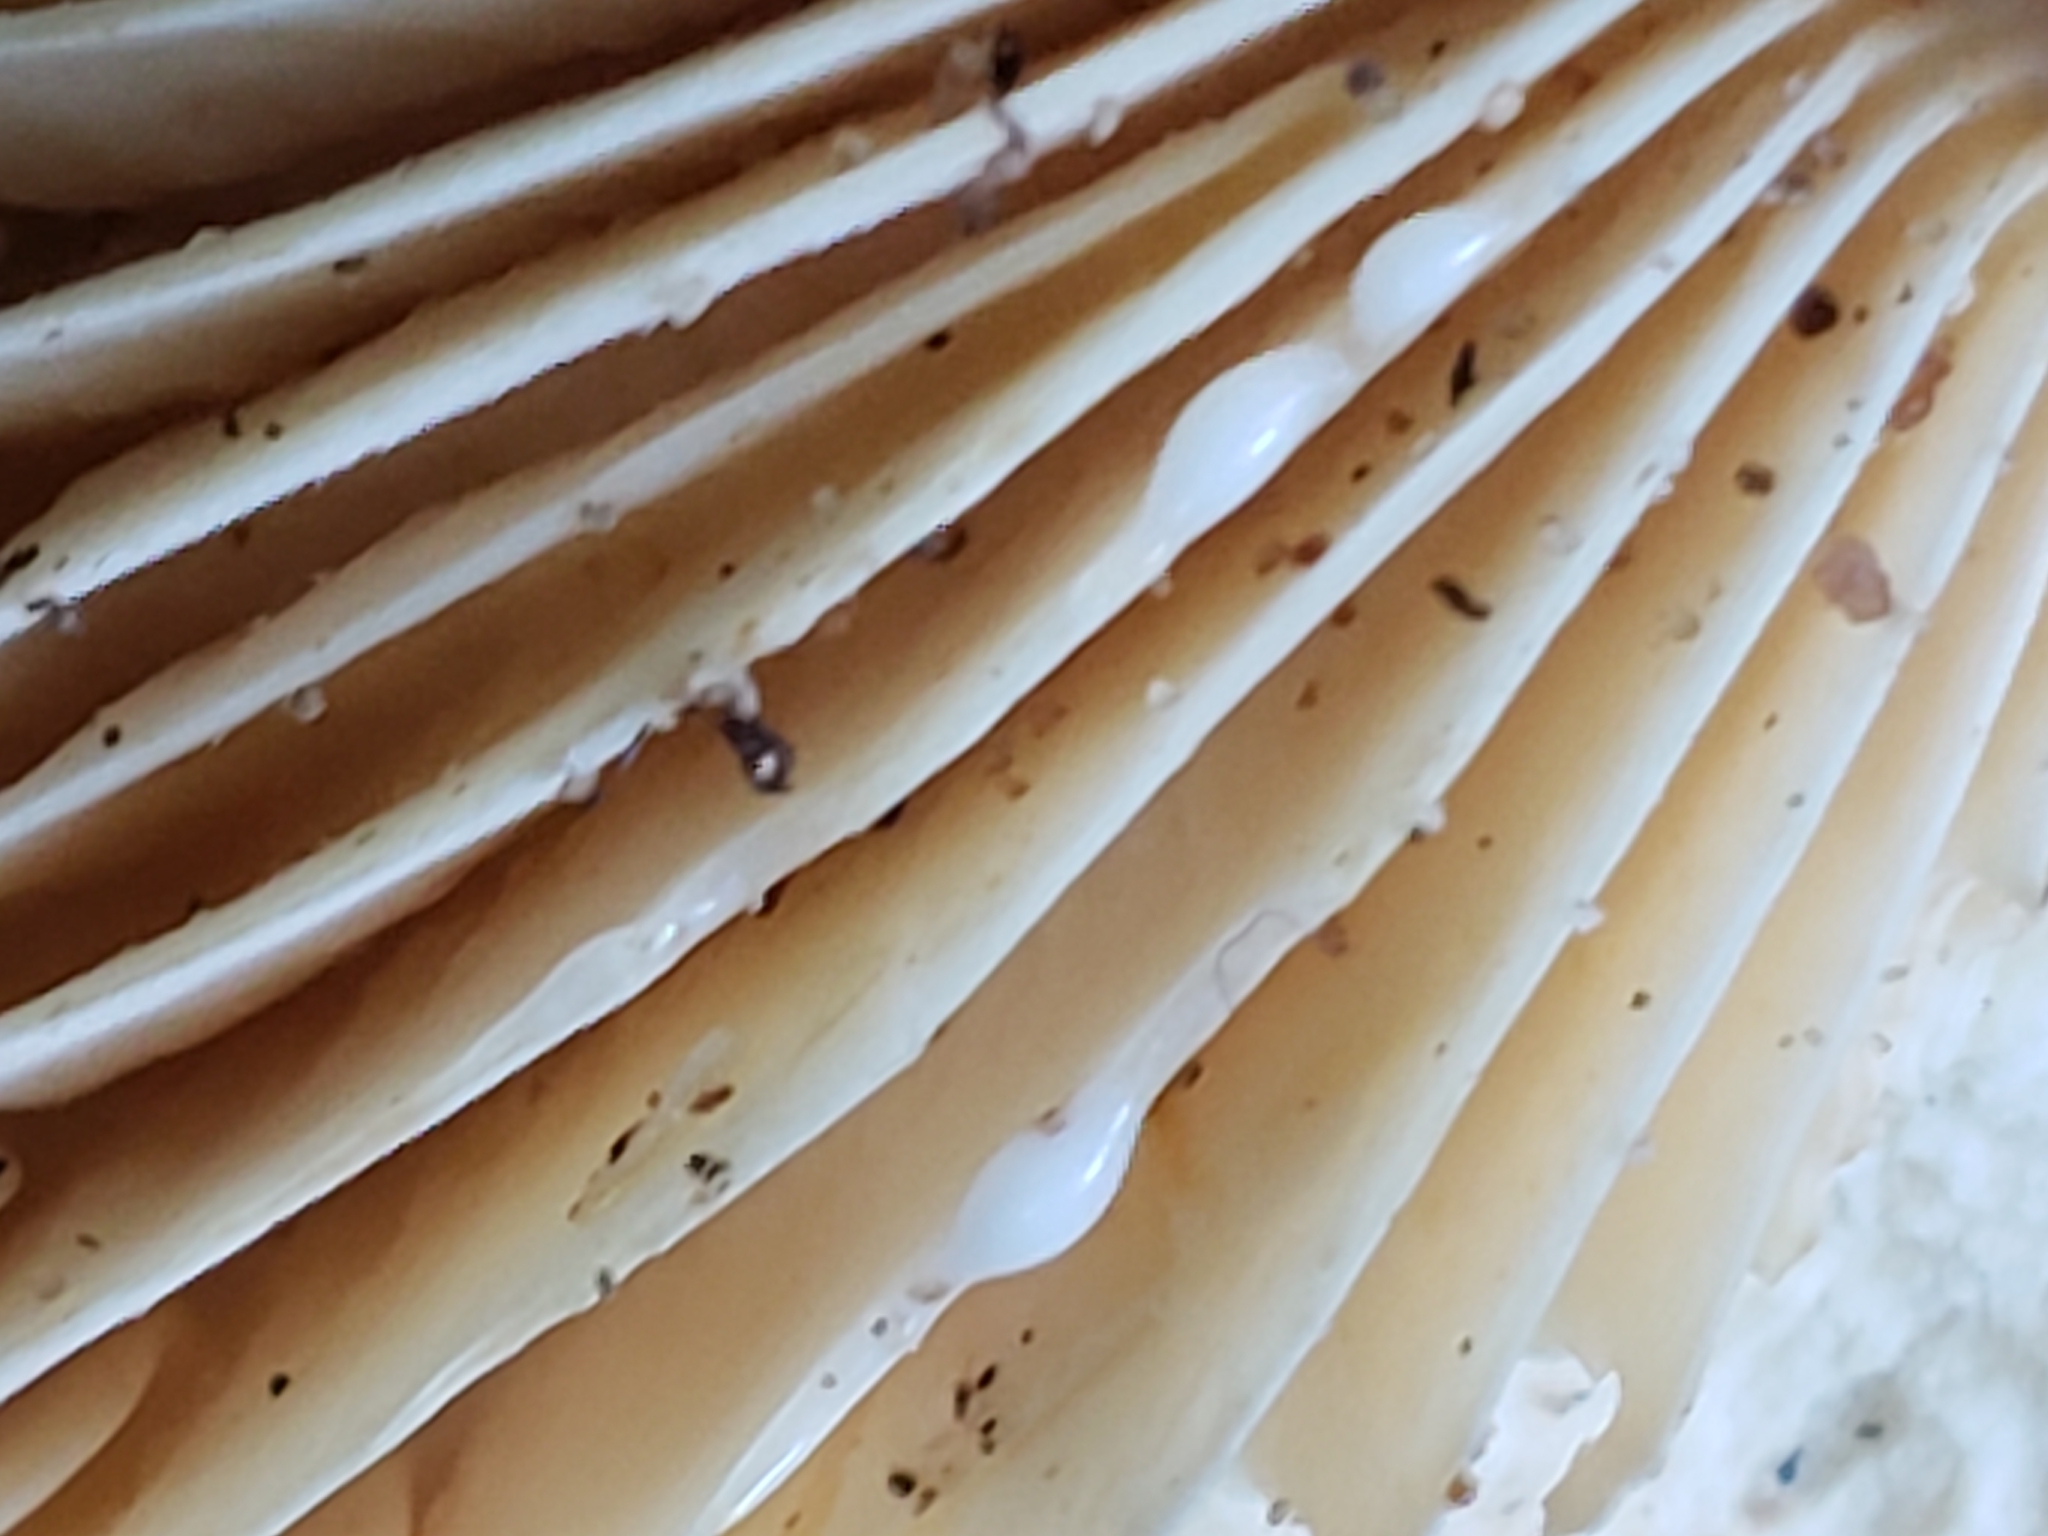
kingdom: Fungi
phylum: Basidiomycota
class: Agaricomycetes
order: Russulales
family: Russulaceae
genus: Lactarius
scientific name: Lactarius hygrophoroides
